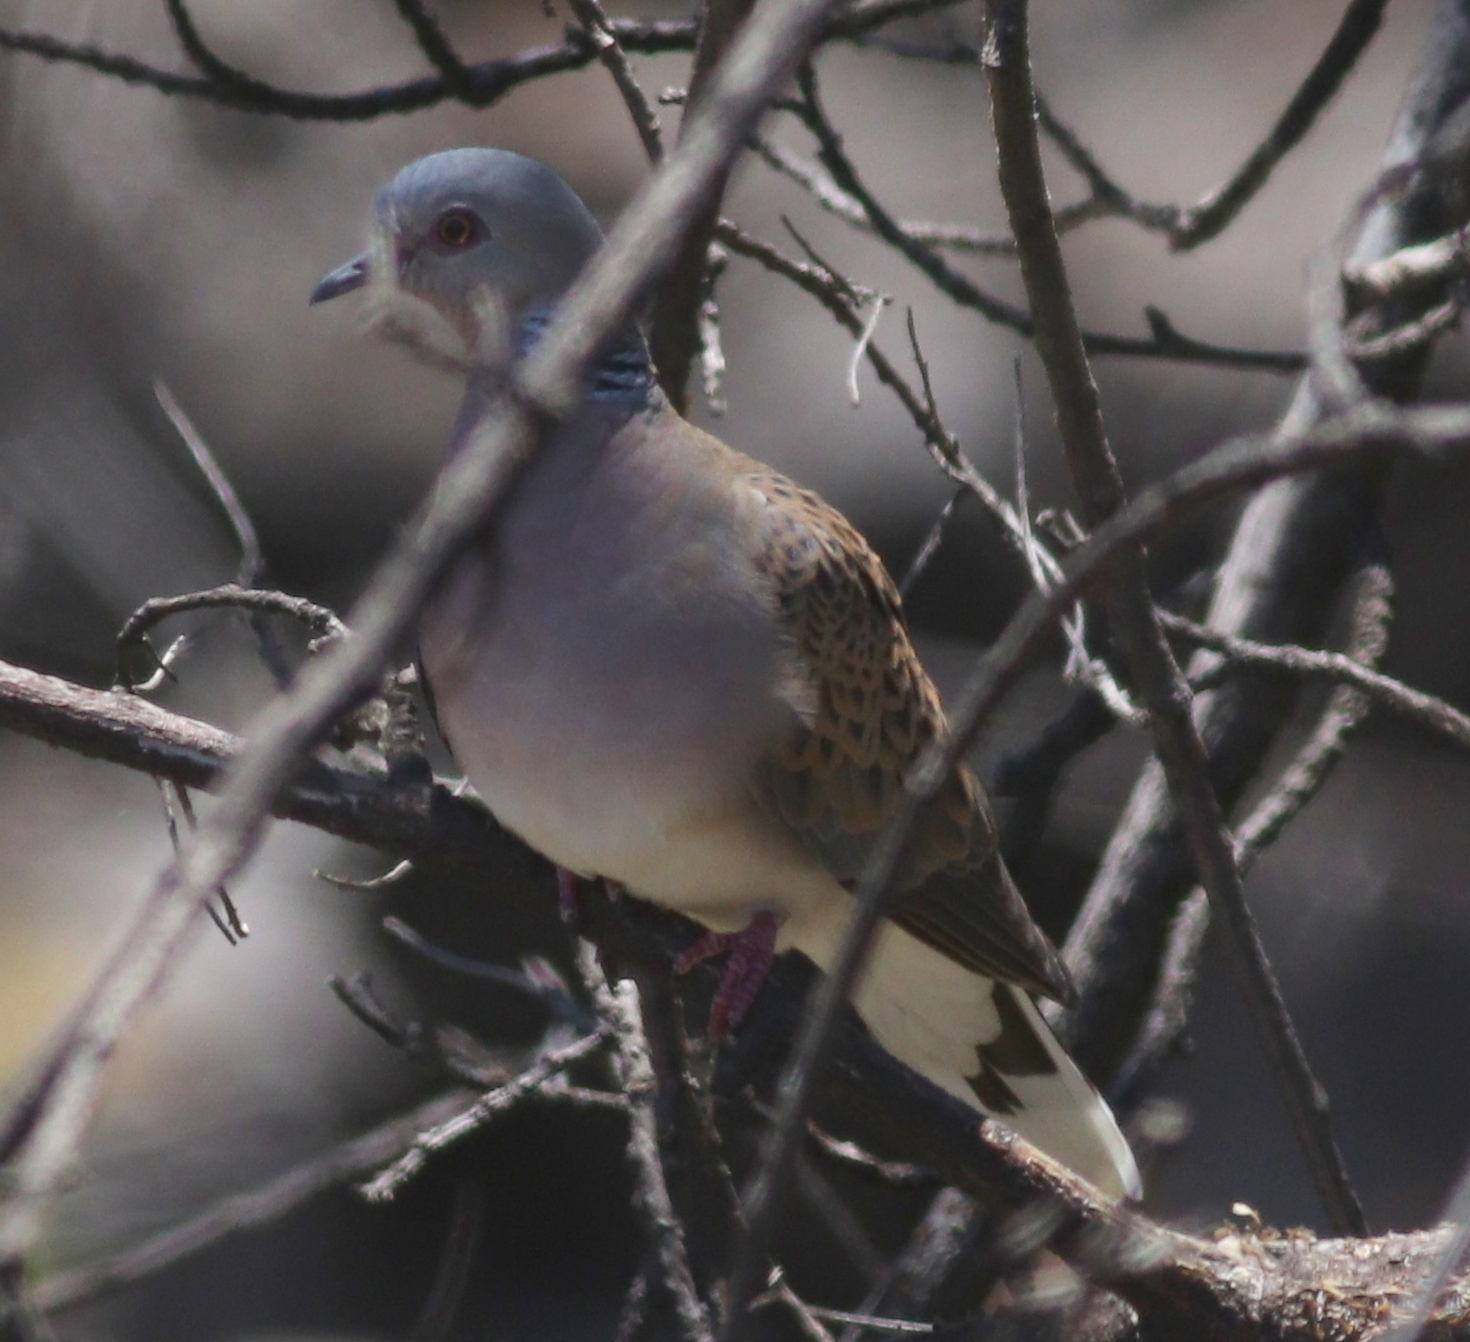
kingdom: Animalia
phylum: Chordata
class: Aves
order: Columbiformes
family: Columbidae
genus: Streptopelia
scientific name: Streptopelia turtur
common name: European turtle dove
